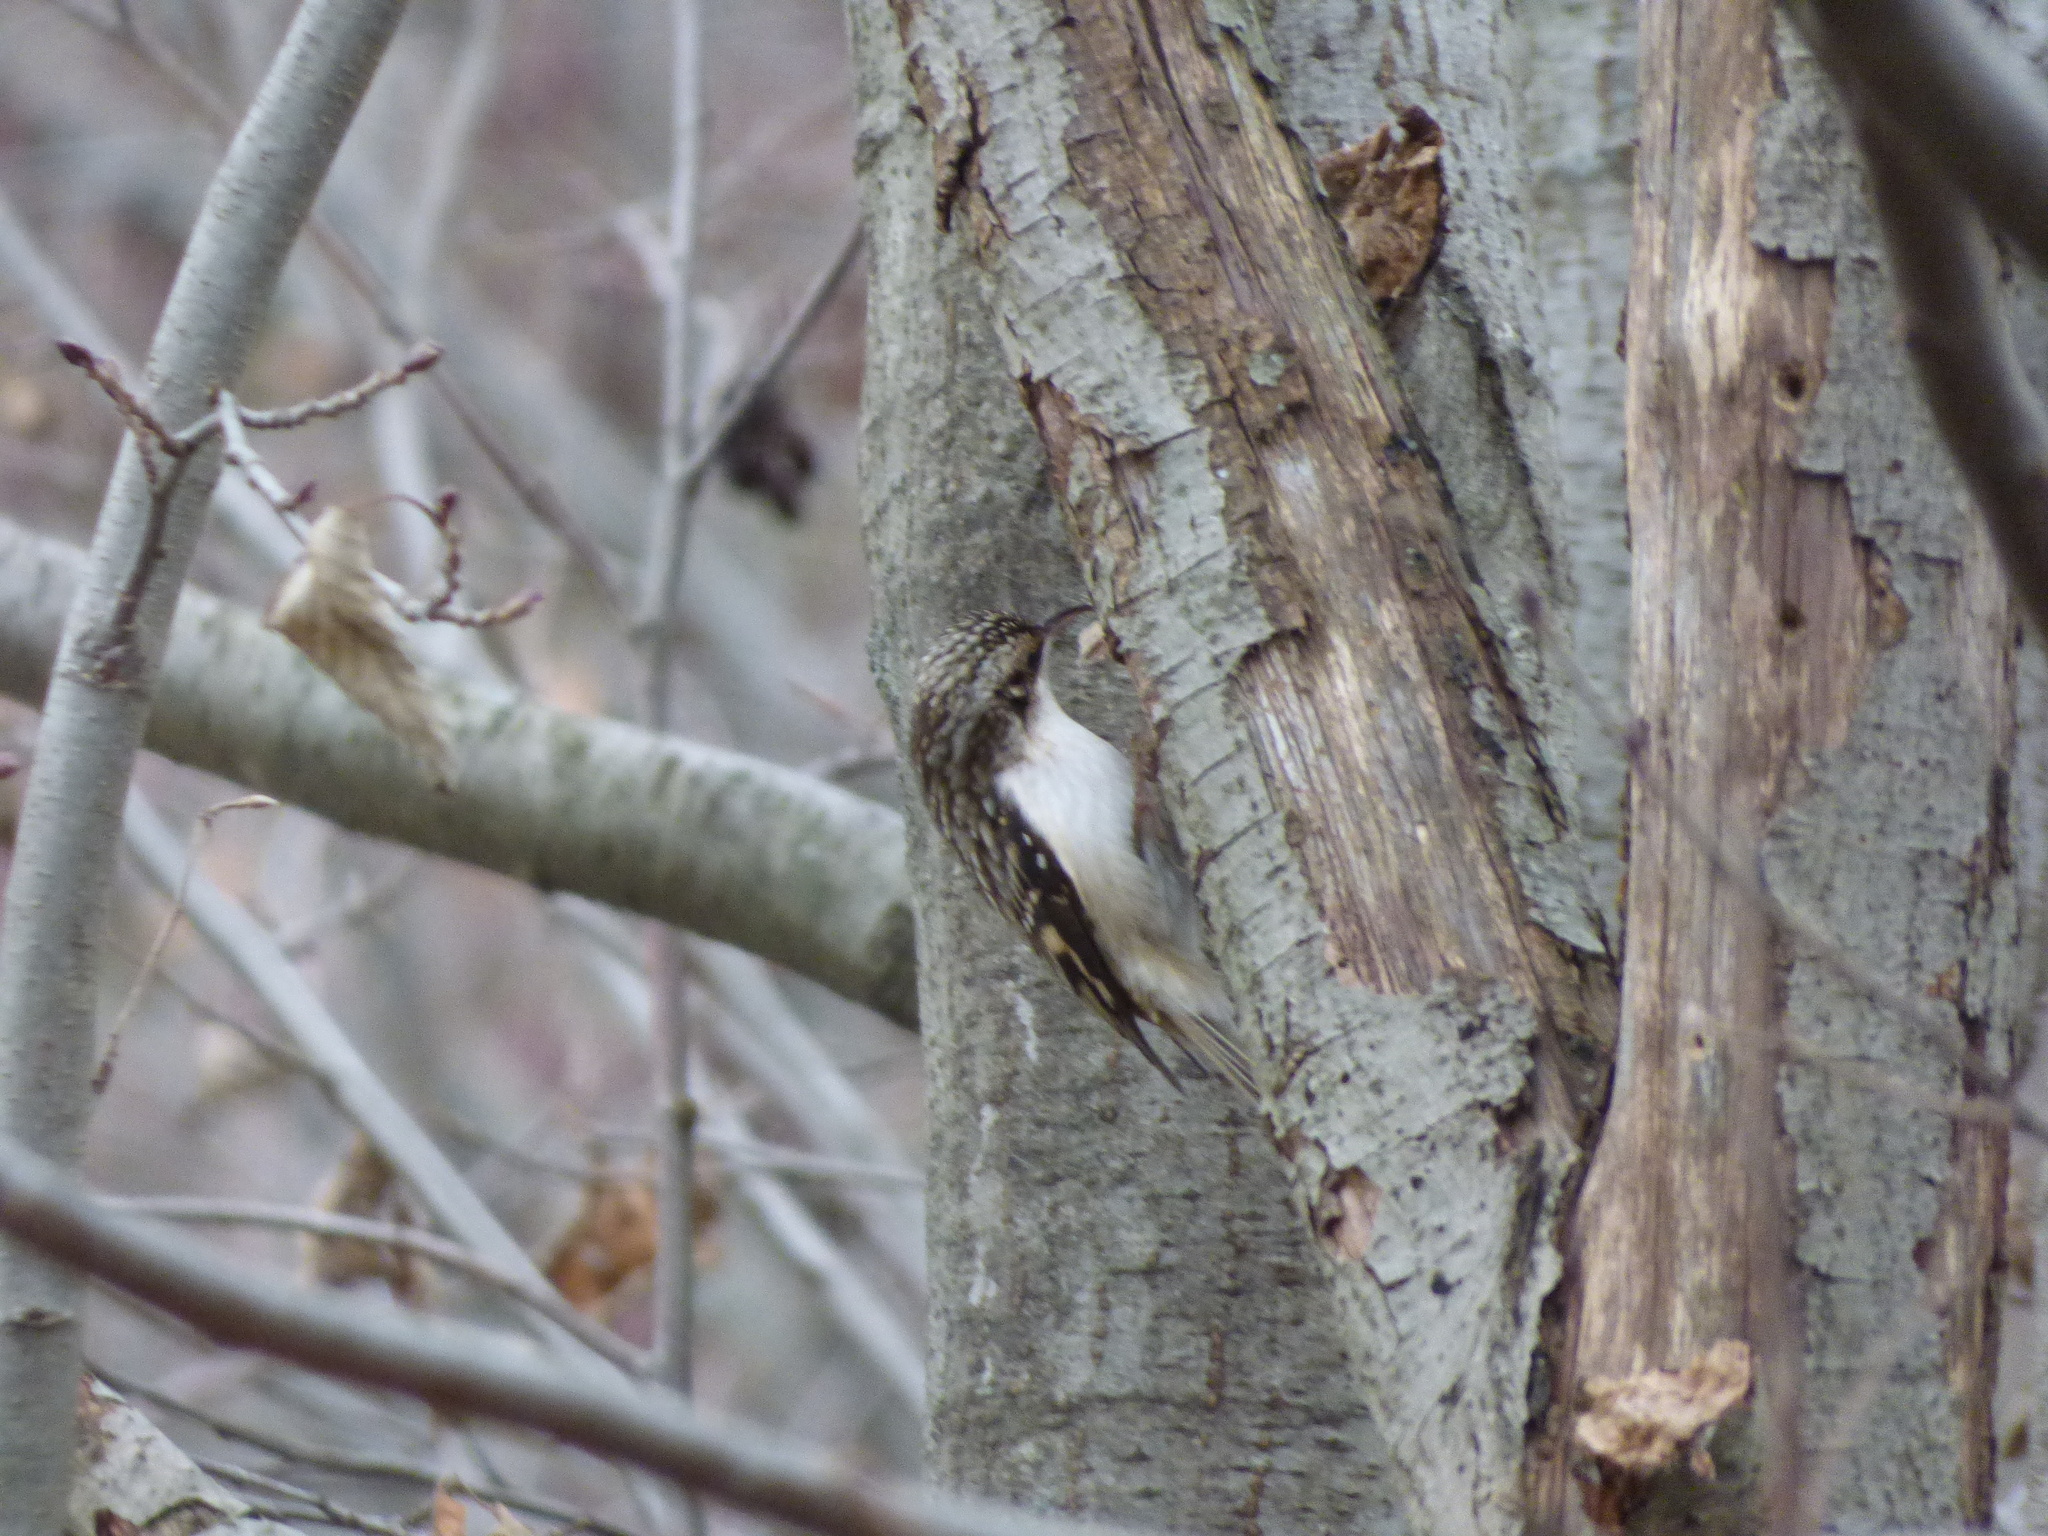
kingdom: Animalia
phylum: Chordata
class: Aves
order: Passeriformes
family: Certhiidae
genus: Certhia
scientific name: Certhia americana
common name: Brown creeper
